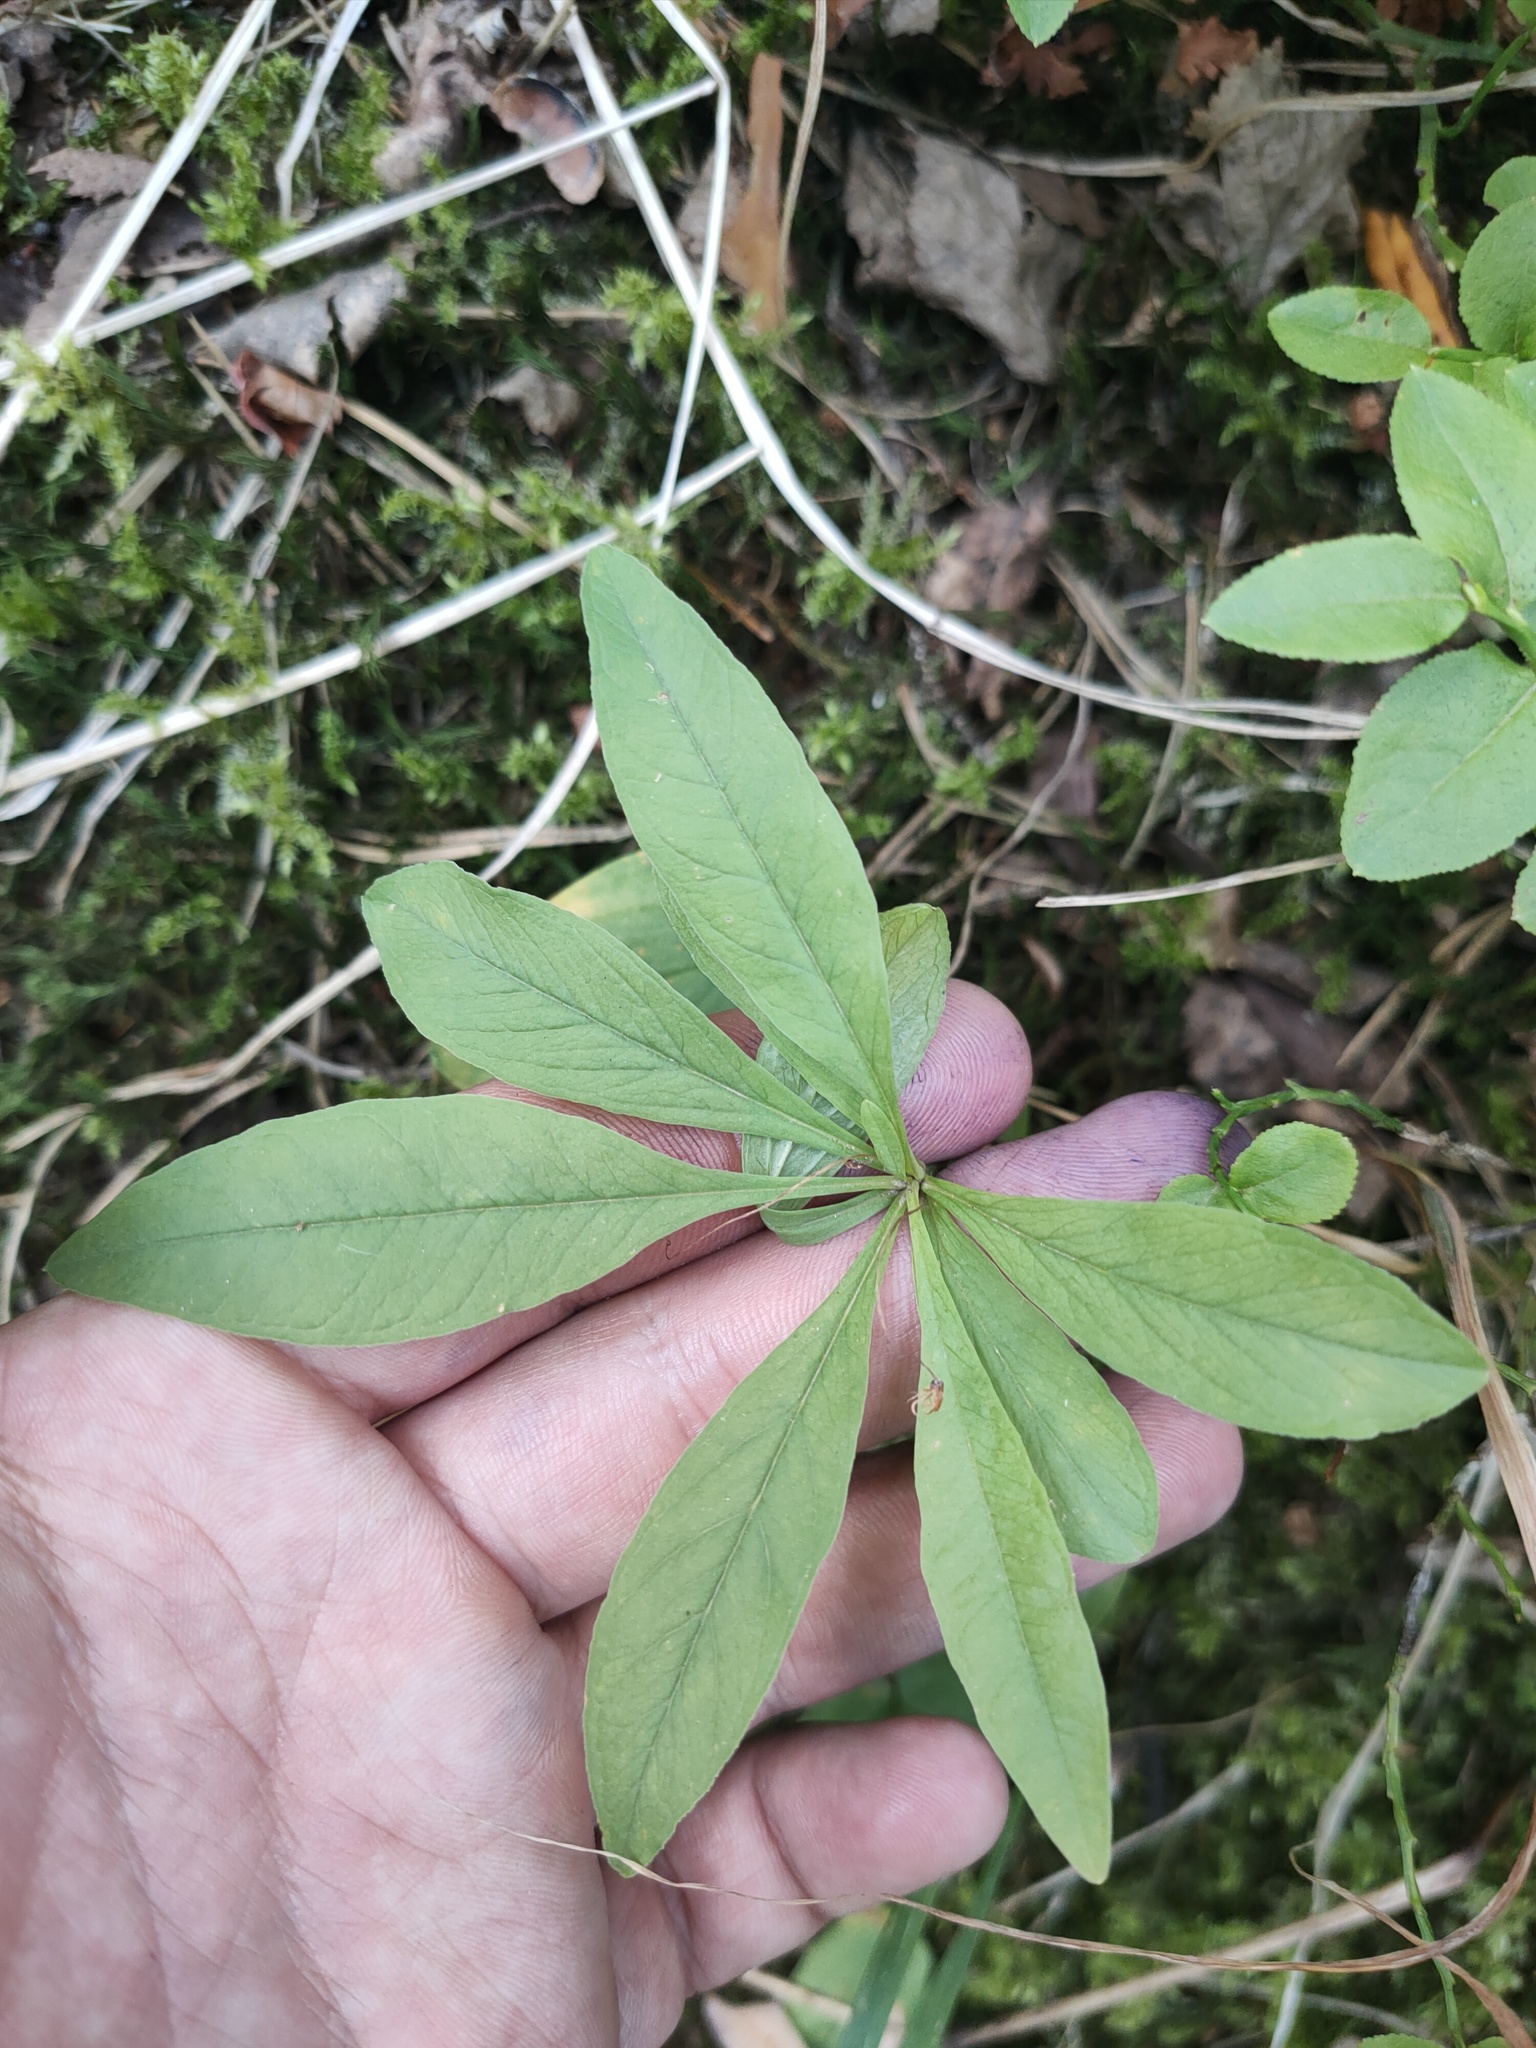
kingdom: Plantae
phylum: Tracheophyta
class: Magnoliopsida
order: Ericales
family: Primulaceae
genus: Lysimachia
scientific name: Lysimachia europaea
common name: Arctic starflower
